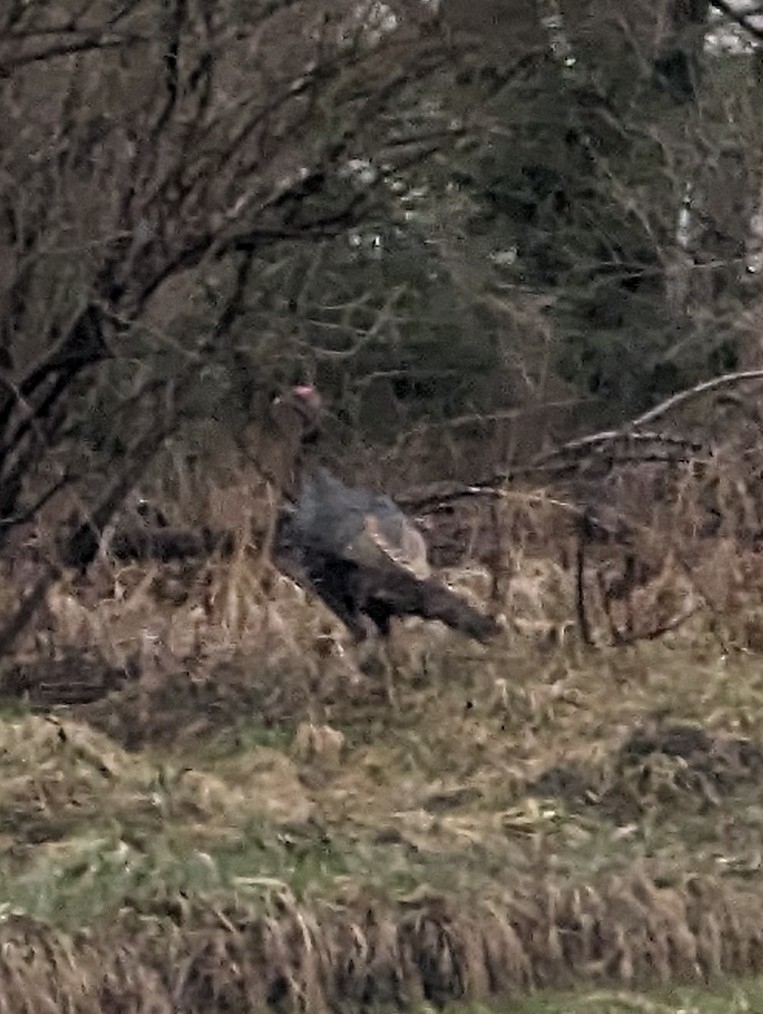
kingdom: Animalia
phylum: Chordata
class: Aves
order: Galliformes
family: Phasianidae
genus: Meleagris
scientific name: Meleagris gallopavo
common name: Wild turkey
